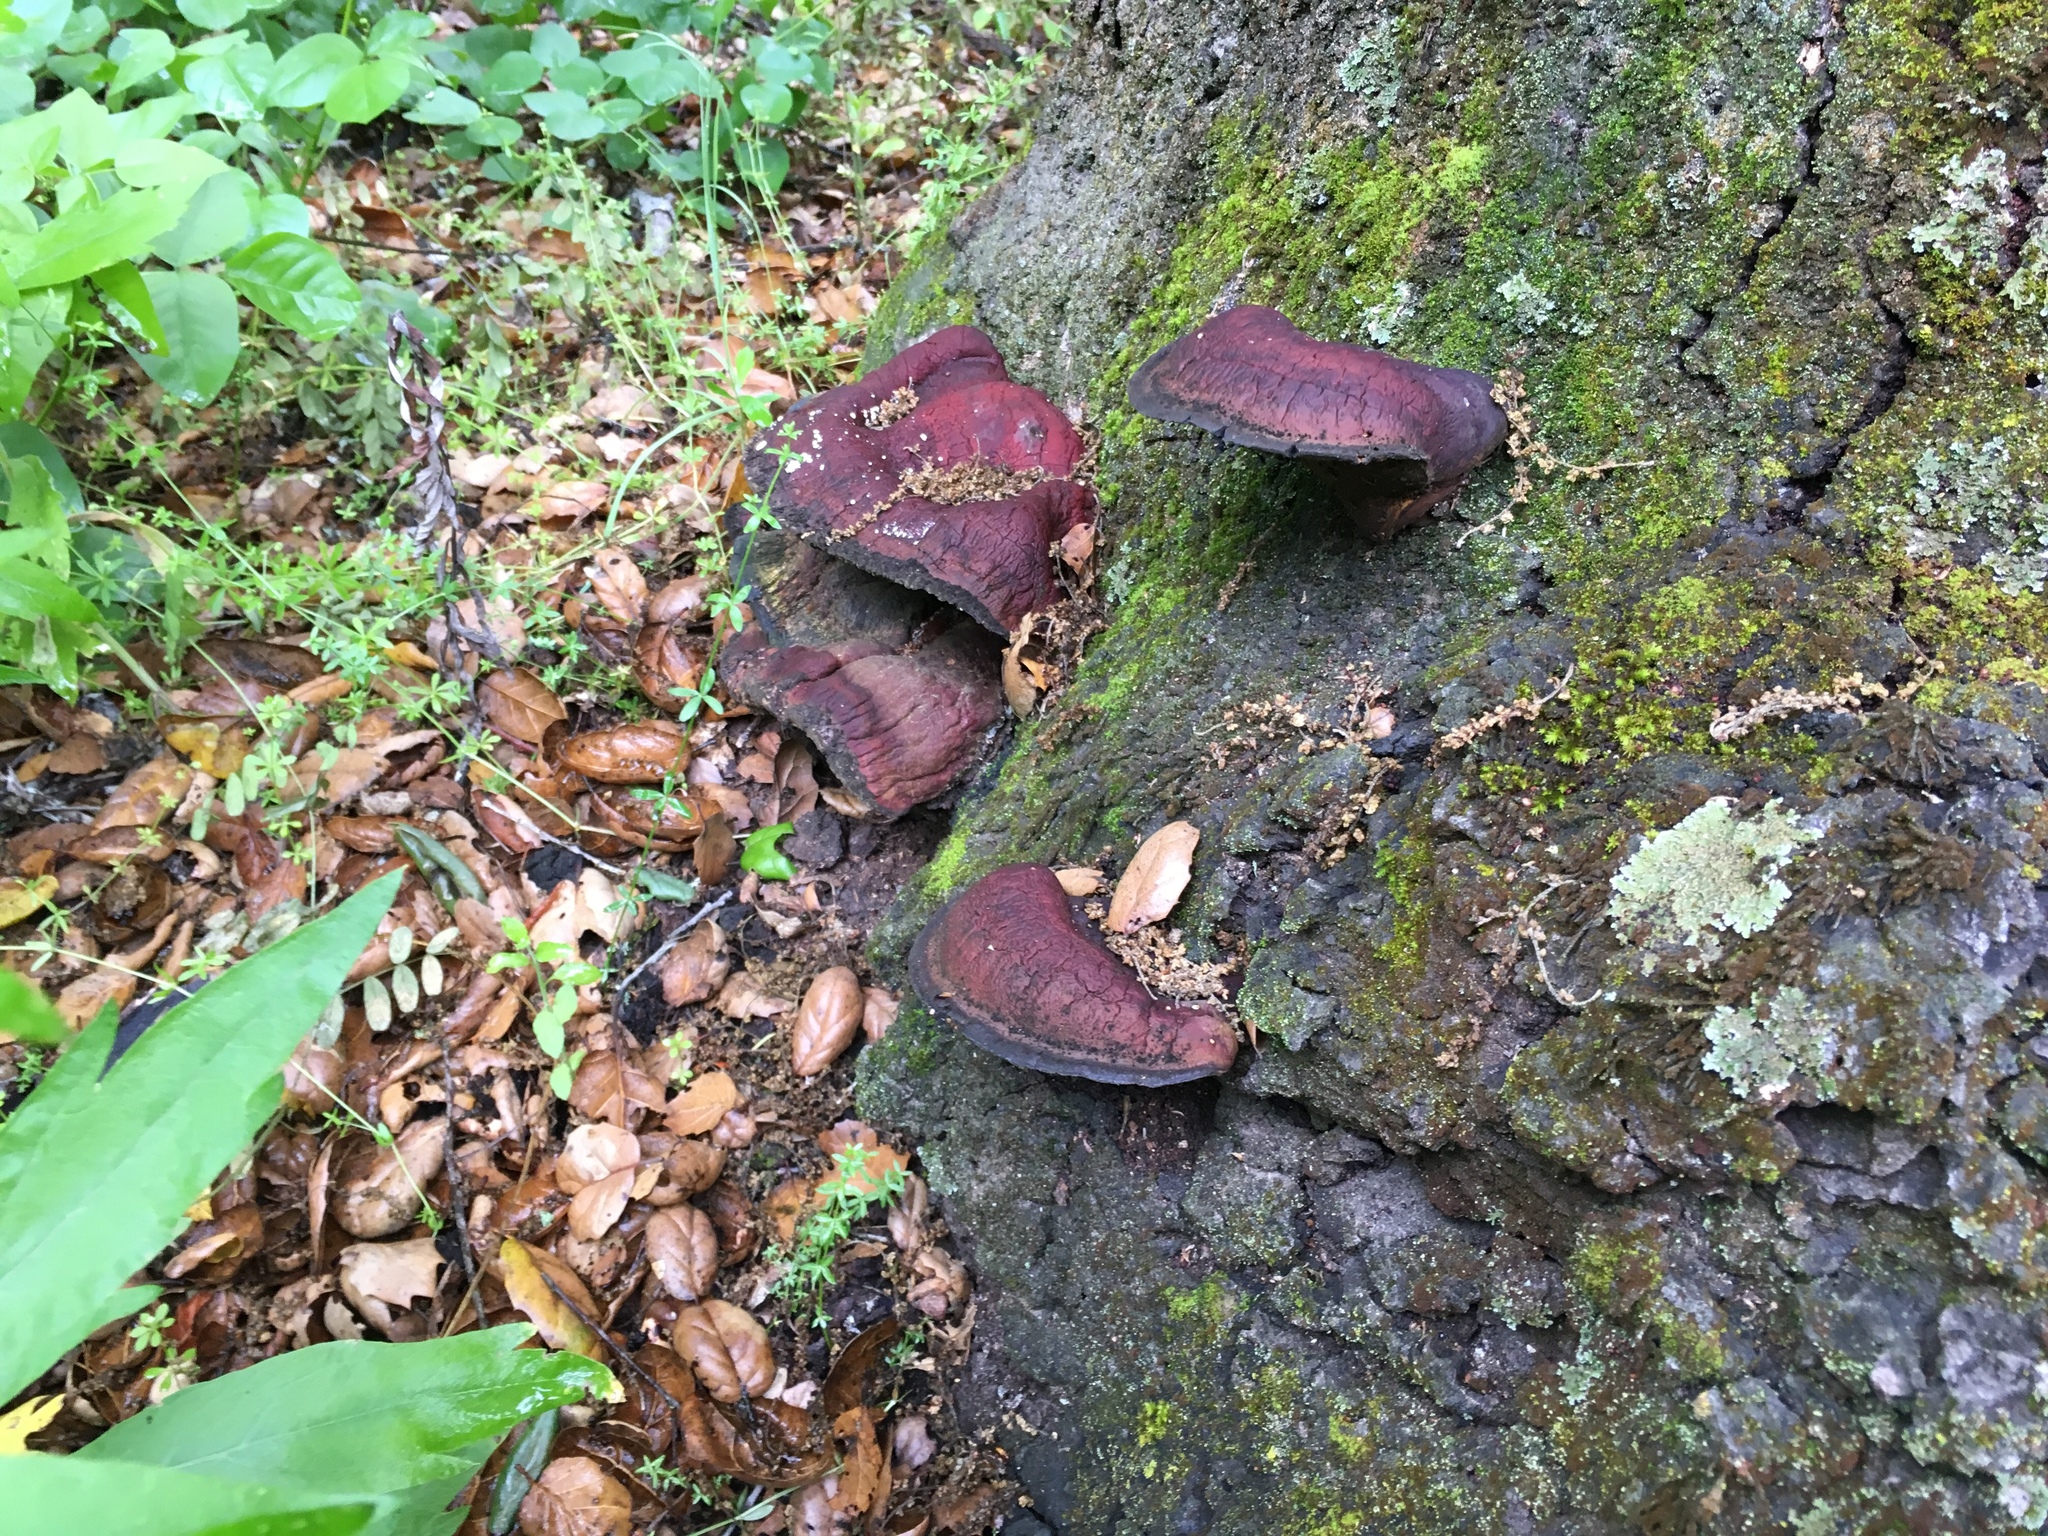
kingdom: Fungi
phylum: Basidiomycota
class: Agaricomycetes
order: Polyporales
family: Polyporaceae
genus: Ganoderma
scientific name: Ganoderma polychromum
